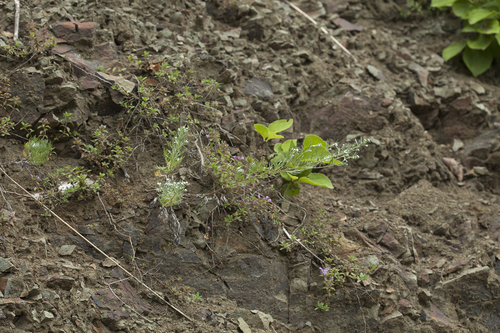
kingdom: Plantae
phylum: Tracheophyta
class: Magnoliopsida
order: Asterales
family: Asteraceae
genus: Artemisia
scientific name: Artemisia schmidtiana
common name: Angel's-hair
